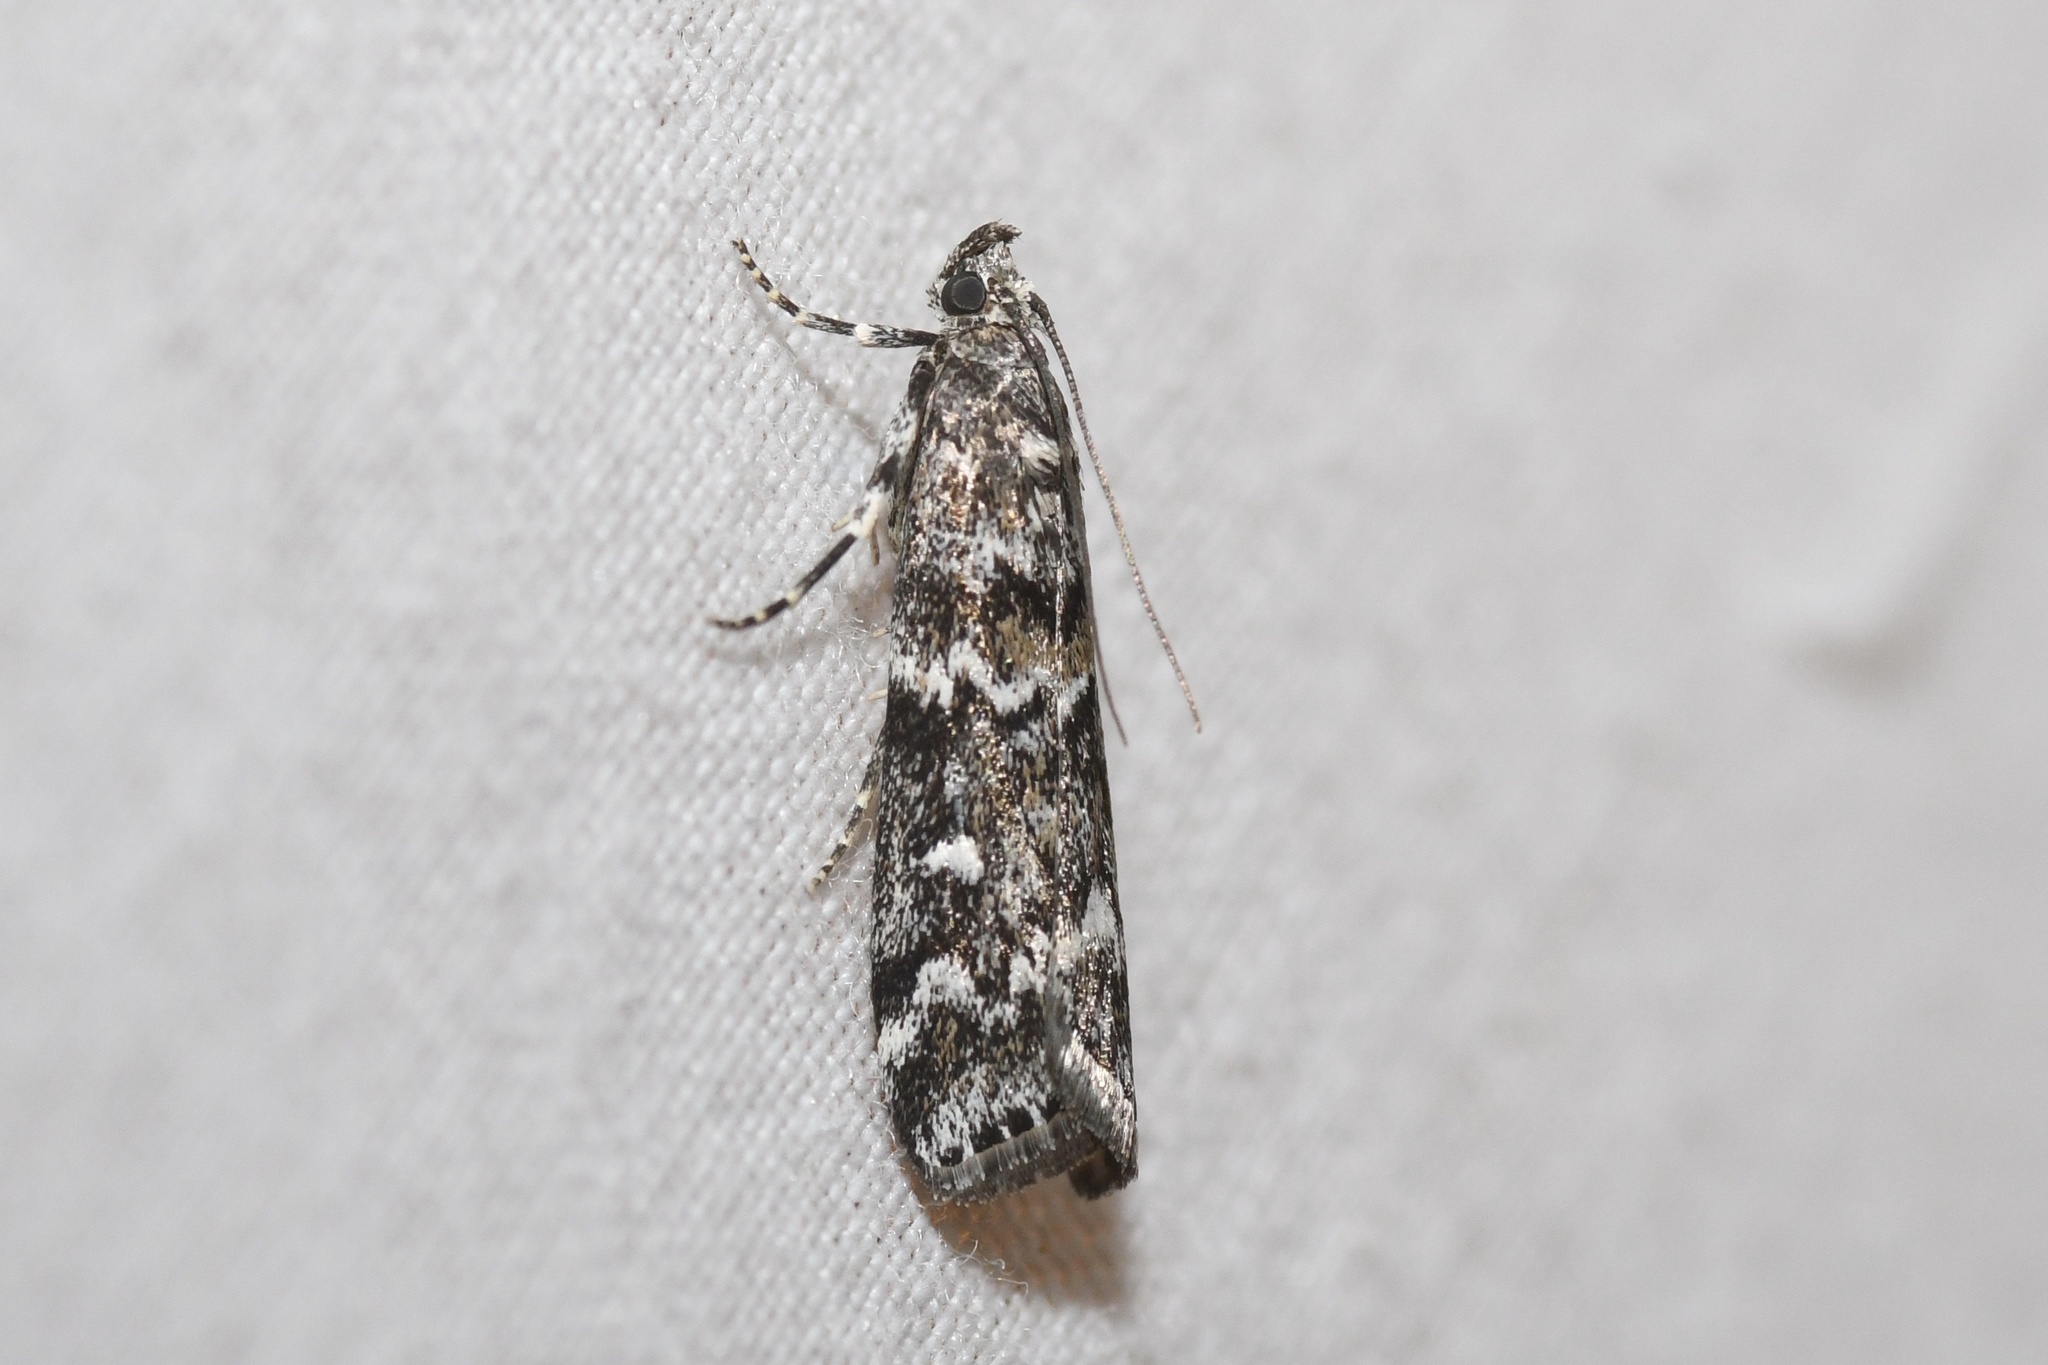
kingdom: Animalia
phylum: Arthropoda
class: Insecta
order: Lepidoptera
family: Pyralidae
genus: Dioryctria
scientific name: Dioryctria reniculelloides
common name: Spruce coneworm moth
